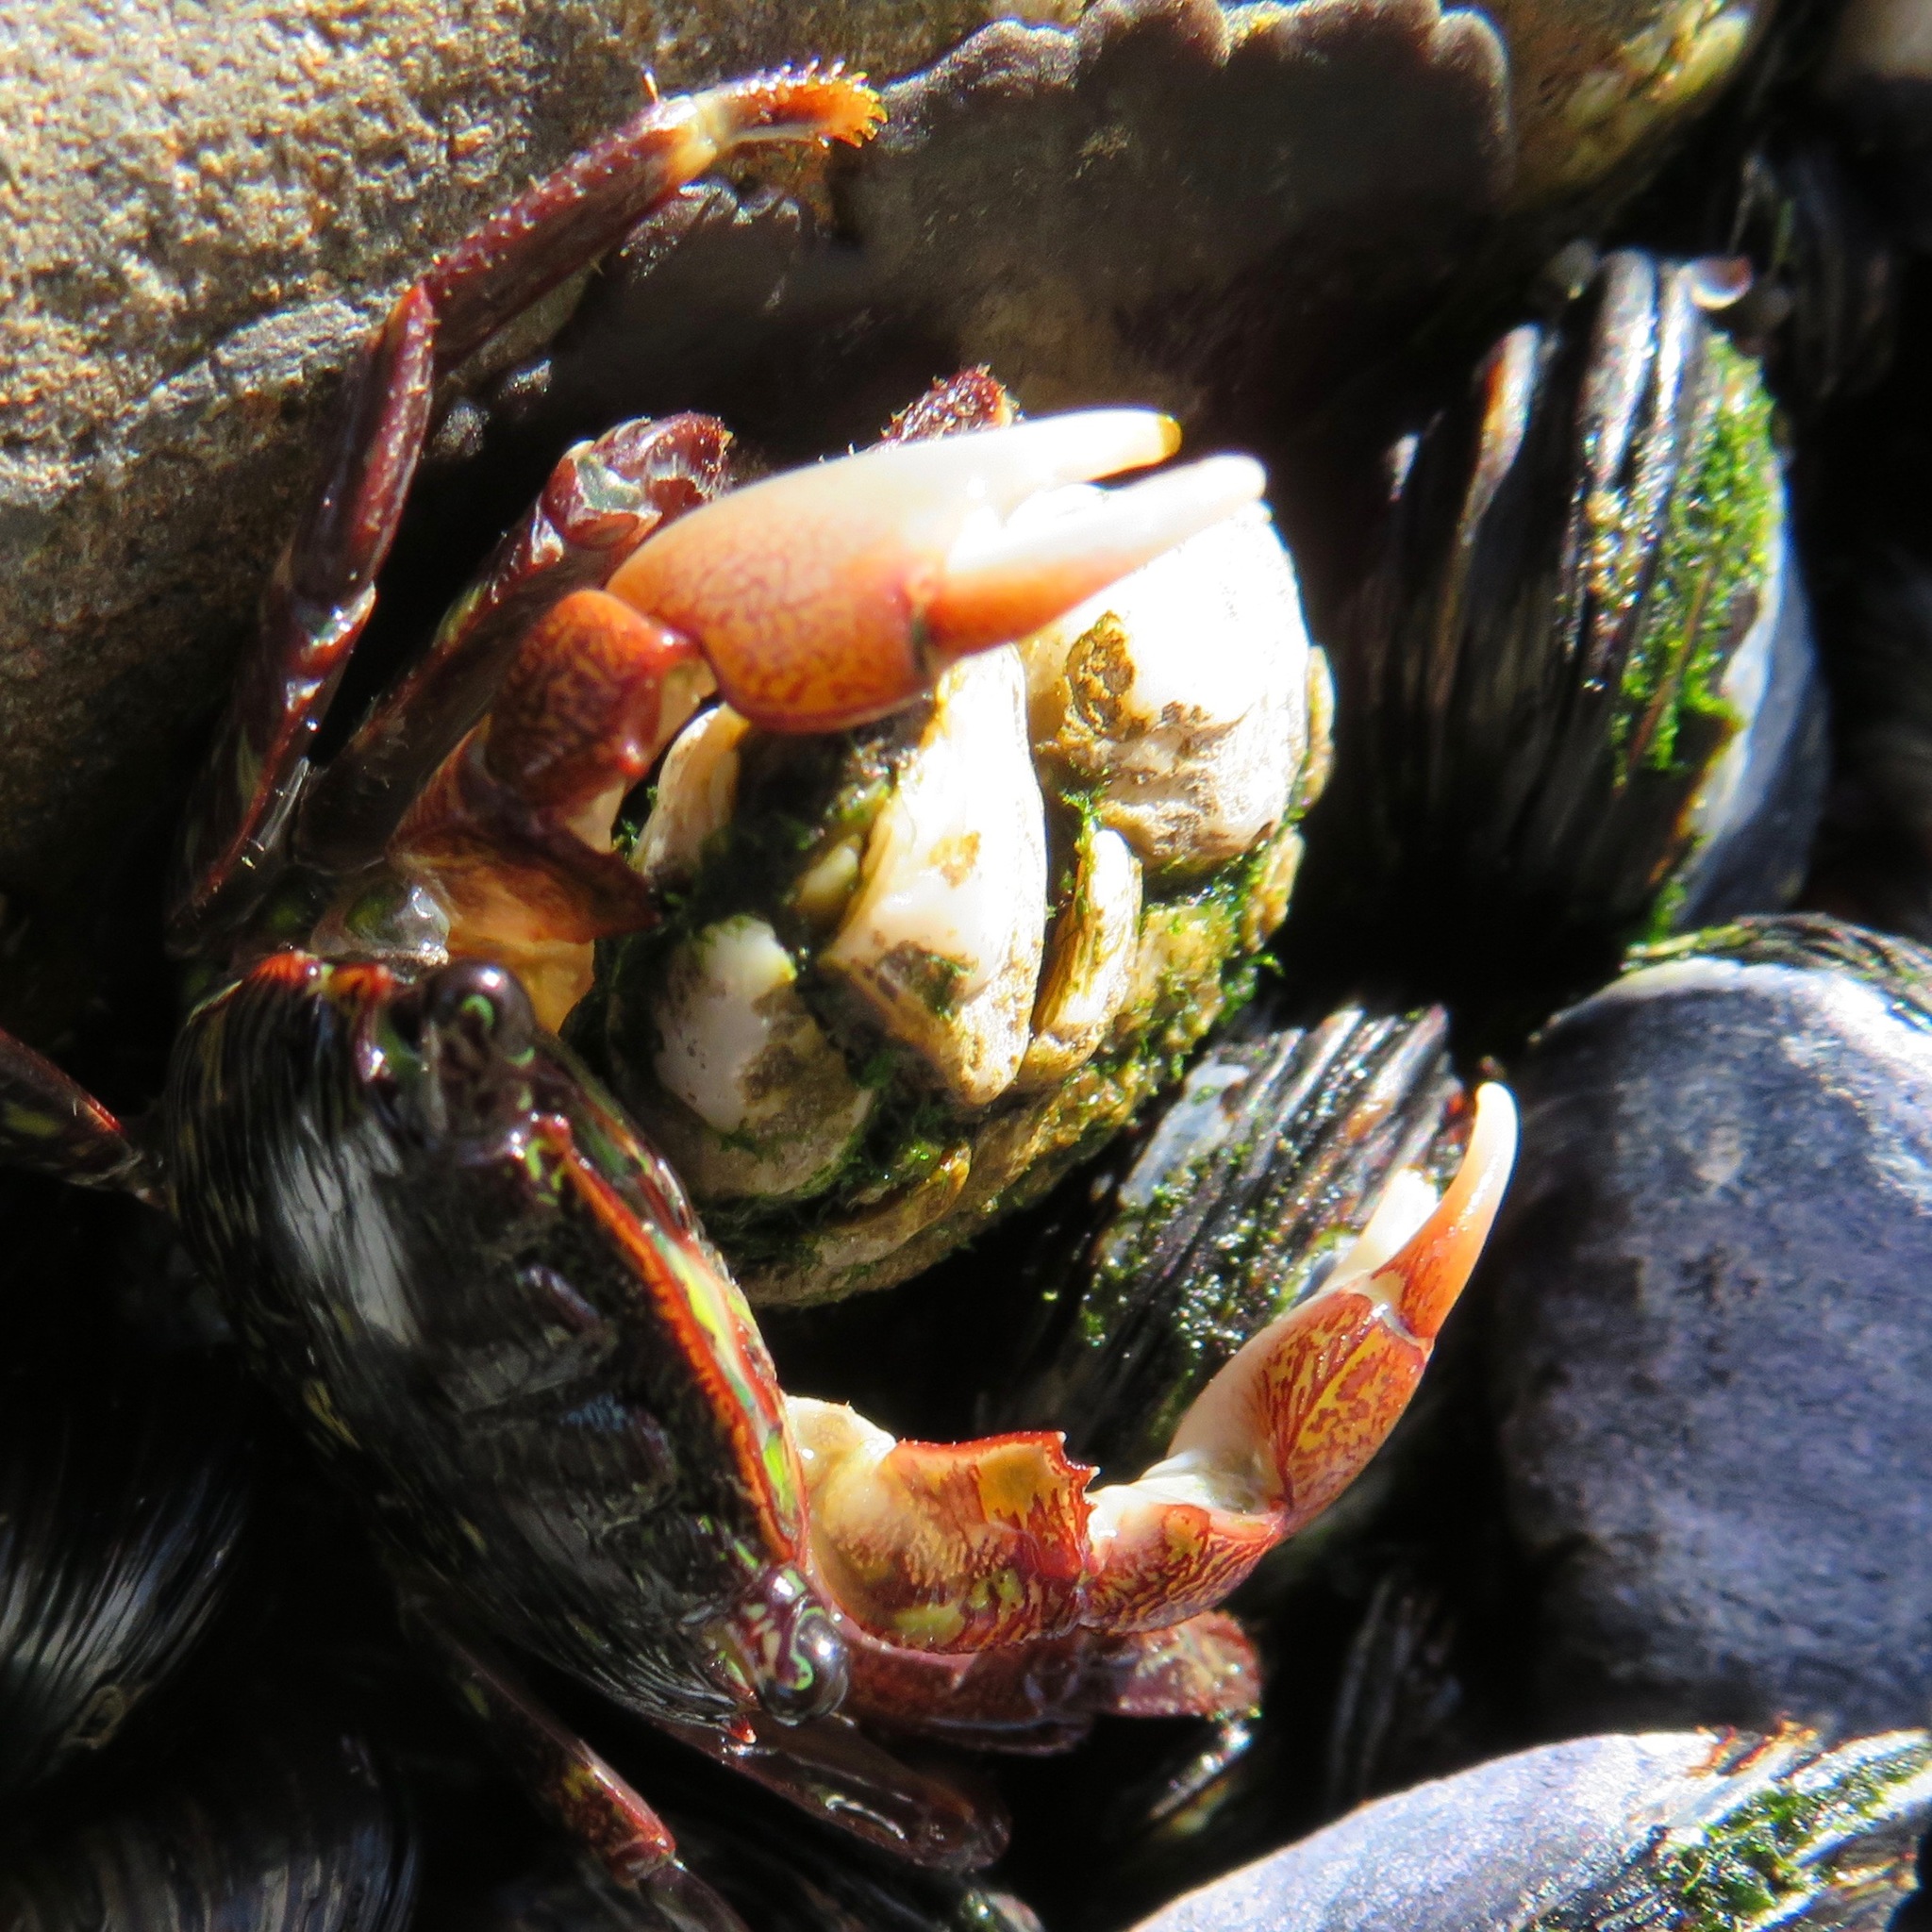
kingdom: Animalia
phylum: Arthropoda
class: Malacostraca
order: Decapoda
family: Grapsidae
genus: Pachygrapsus
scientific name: Pachygrapsus crassipes
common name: Striped shore crab
